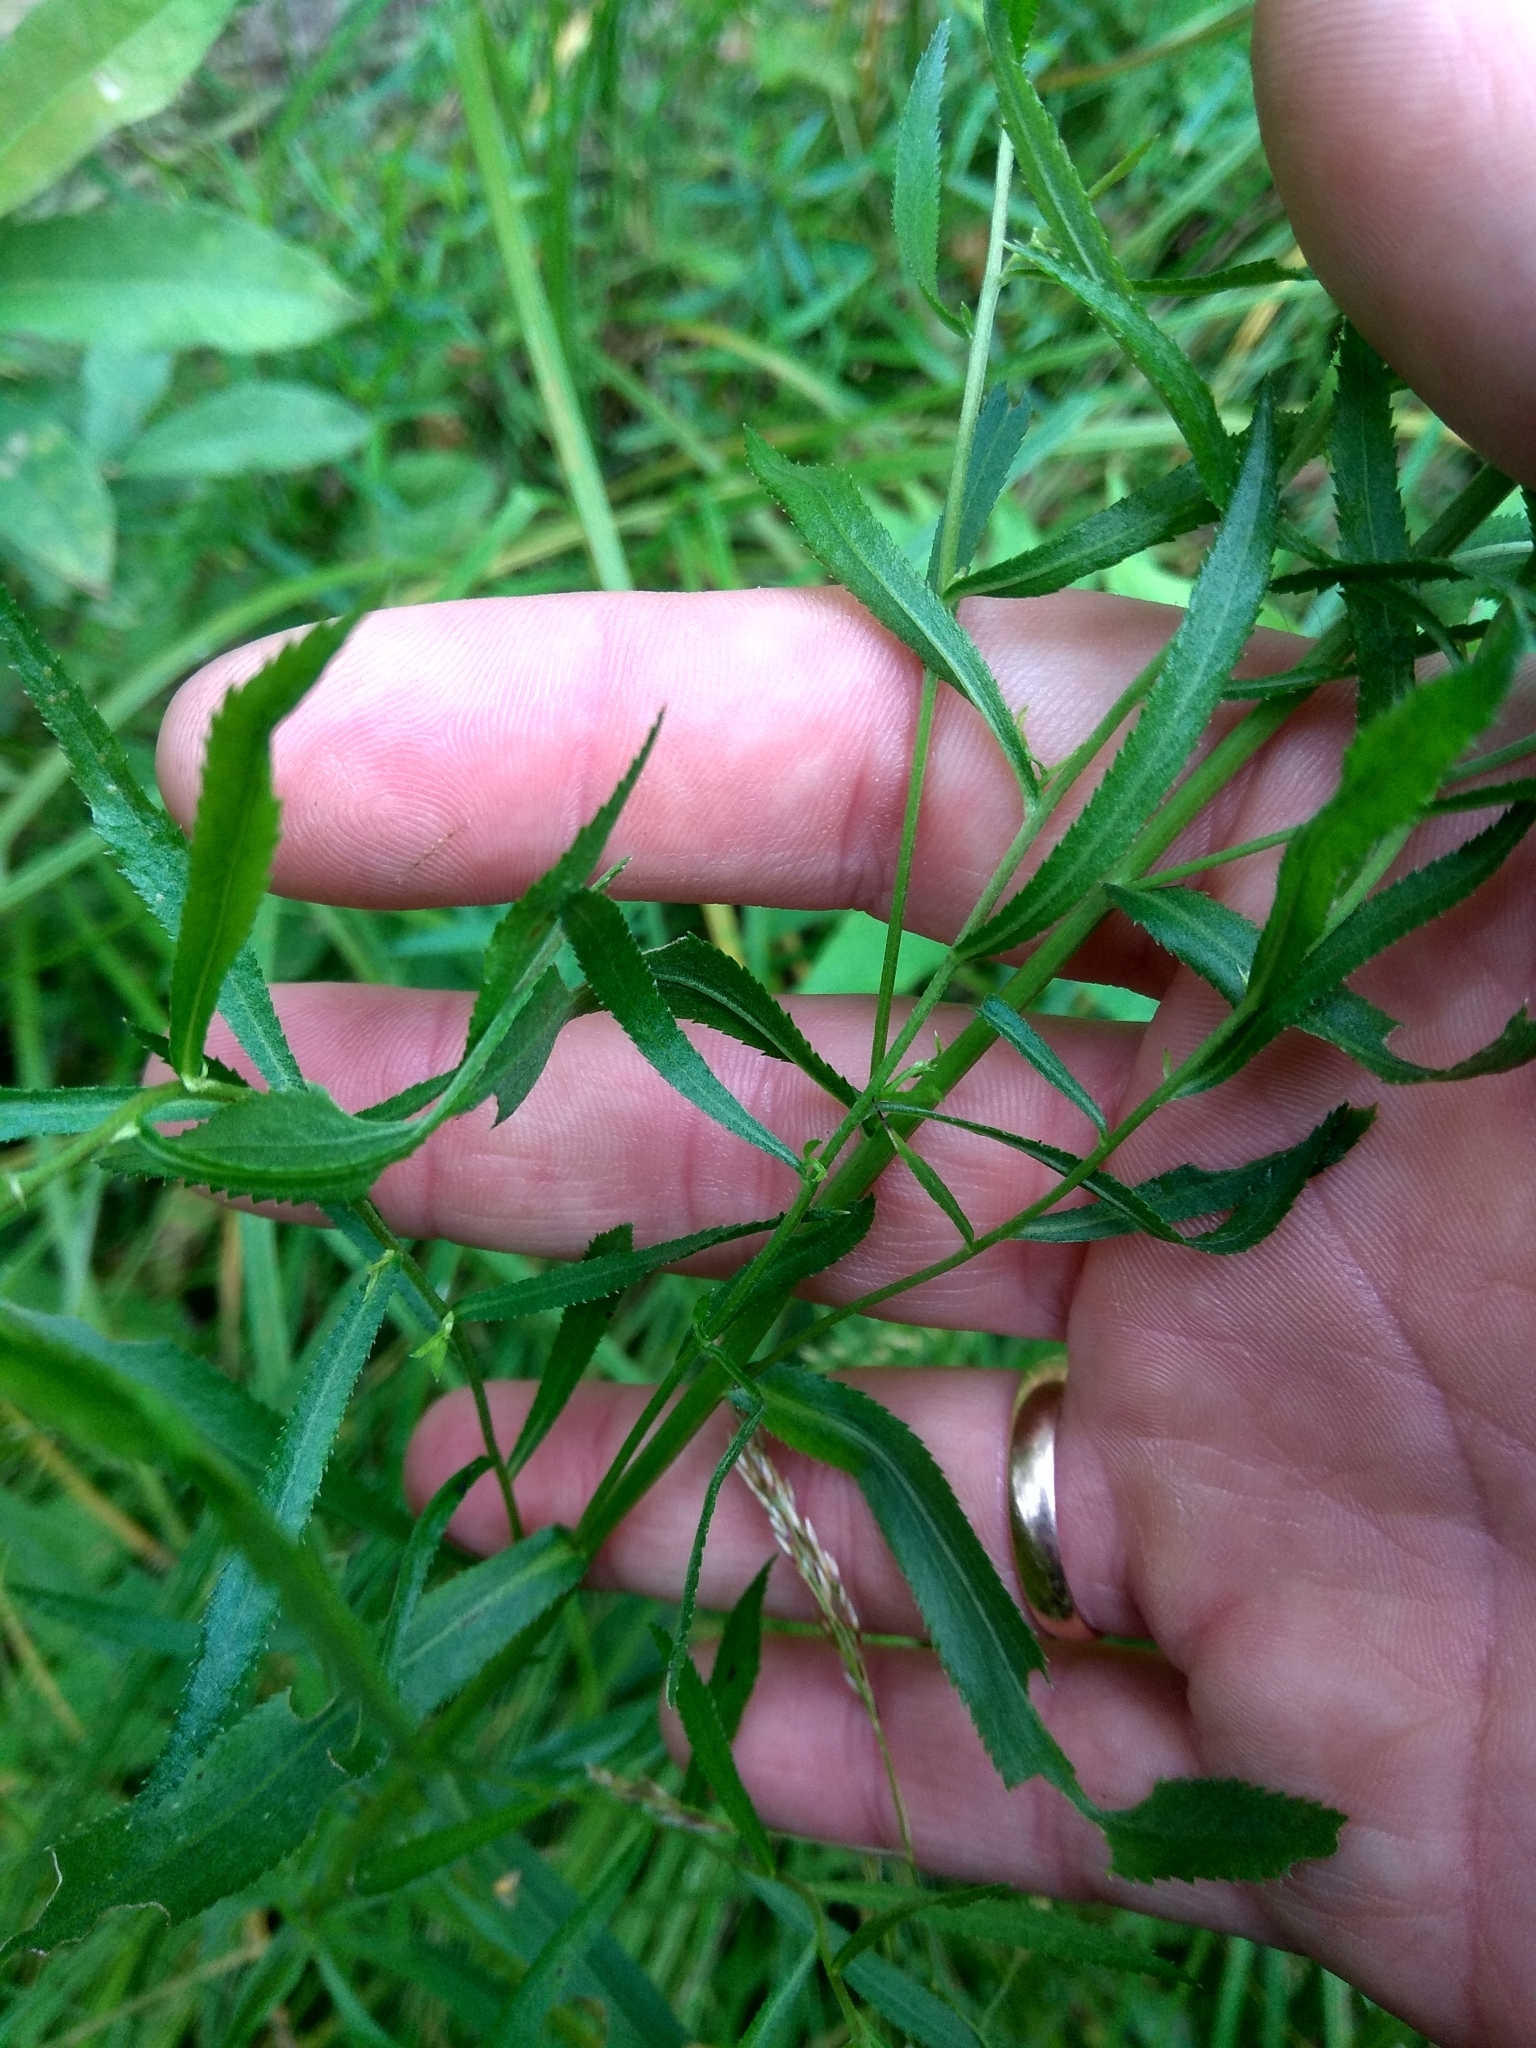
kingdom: Plantae
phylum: Tracheophyta
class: Magnoliopsida
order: Asterales
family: Asteraceae
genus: Achillea
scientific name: Achillea salicifolia
